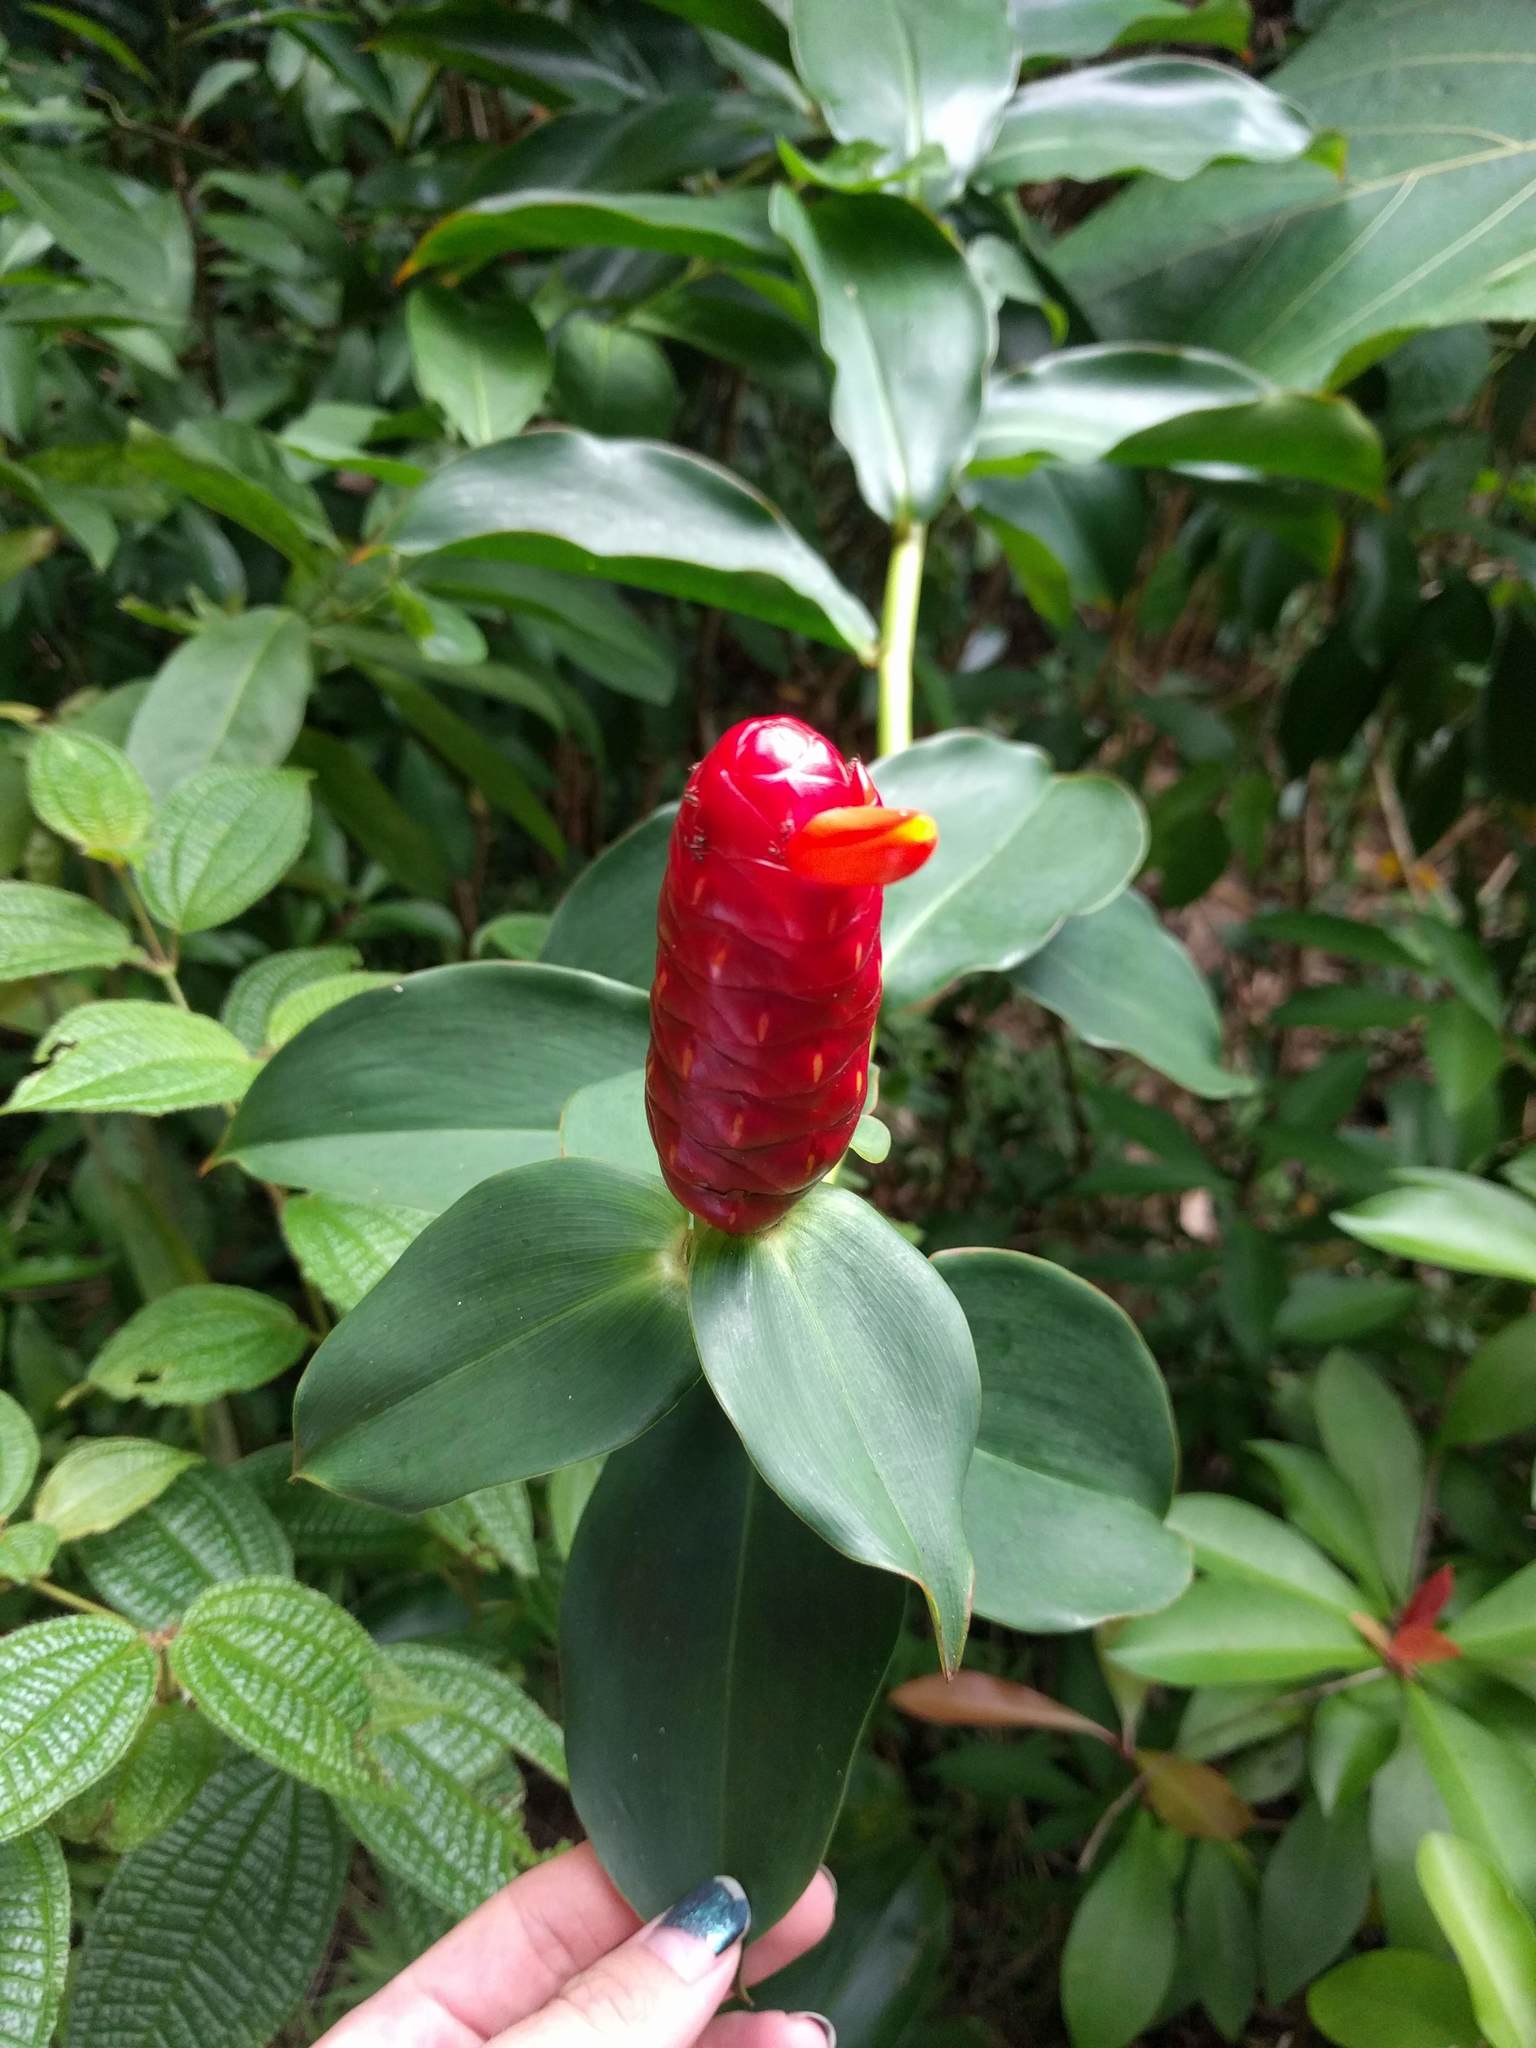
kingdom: Plantae
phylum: Tracheophyta
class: Liliopsida
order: Zingiberales
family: Costaceae
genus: Costus
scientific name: Costus woodsonii
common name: Scarlet spiral-ginger
